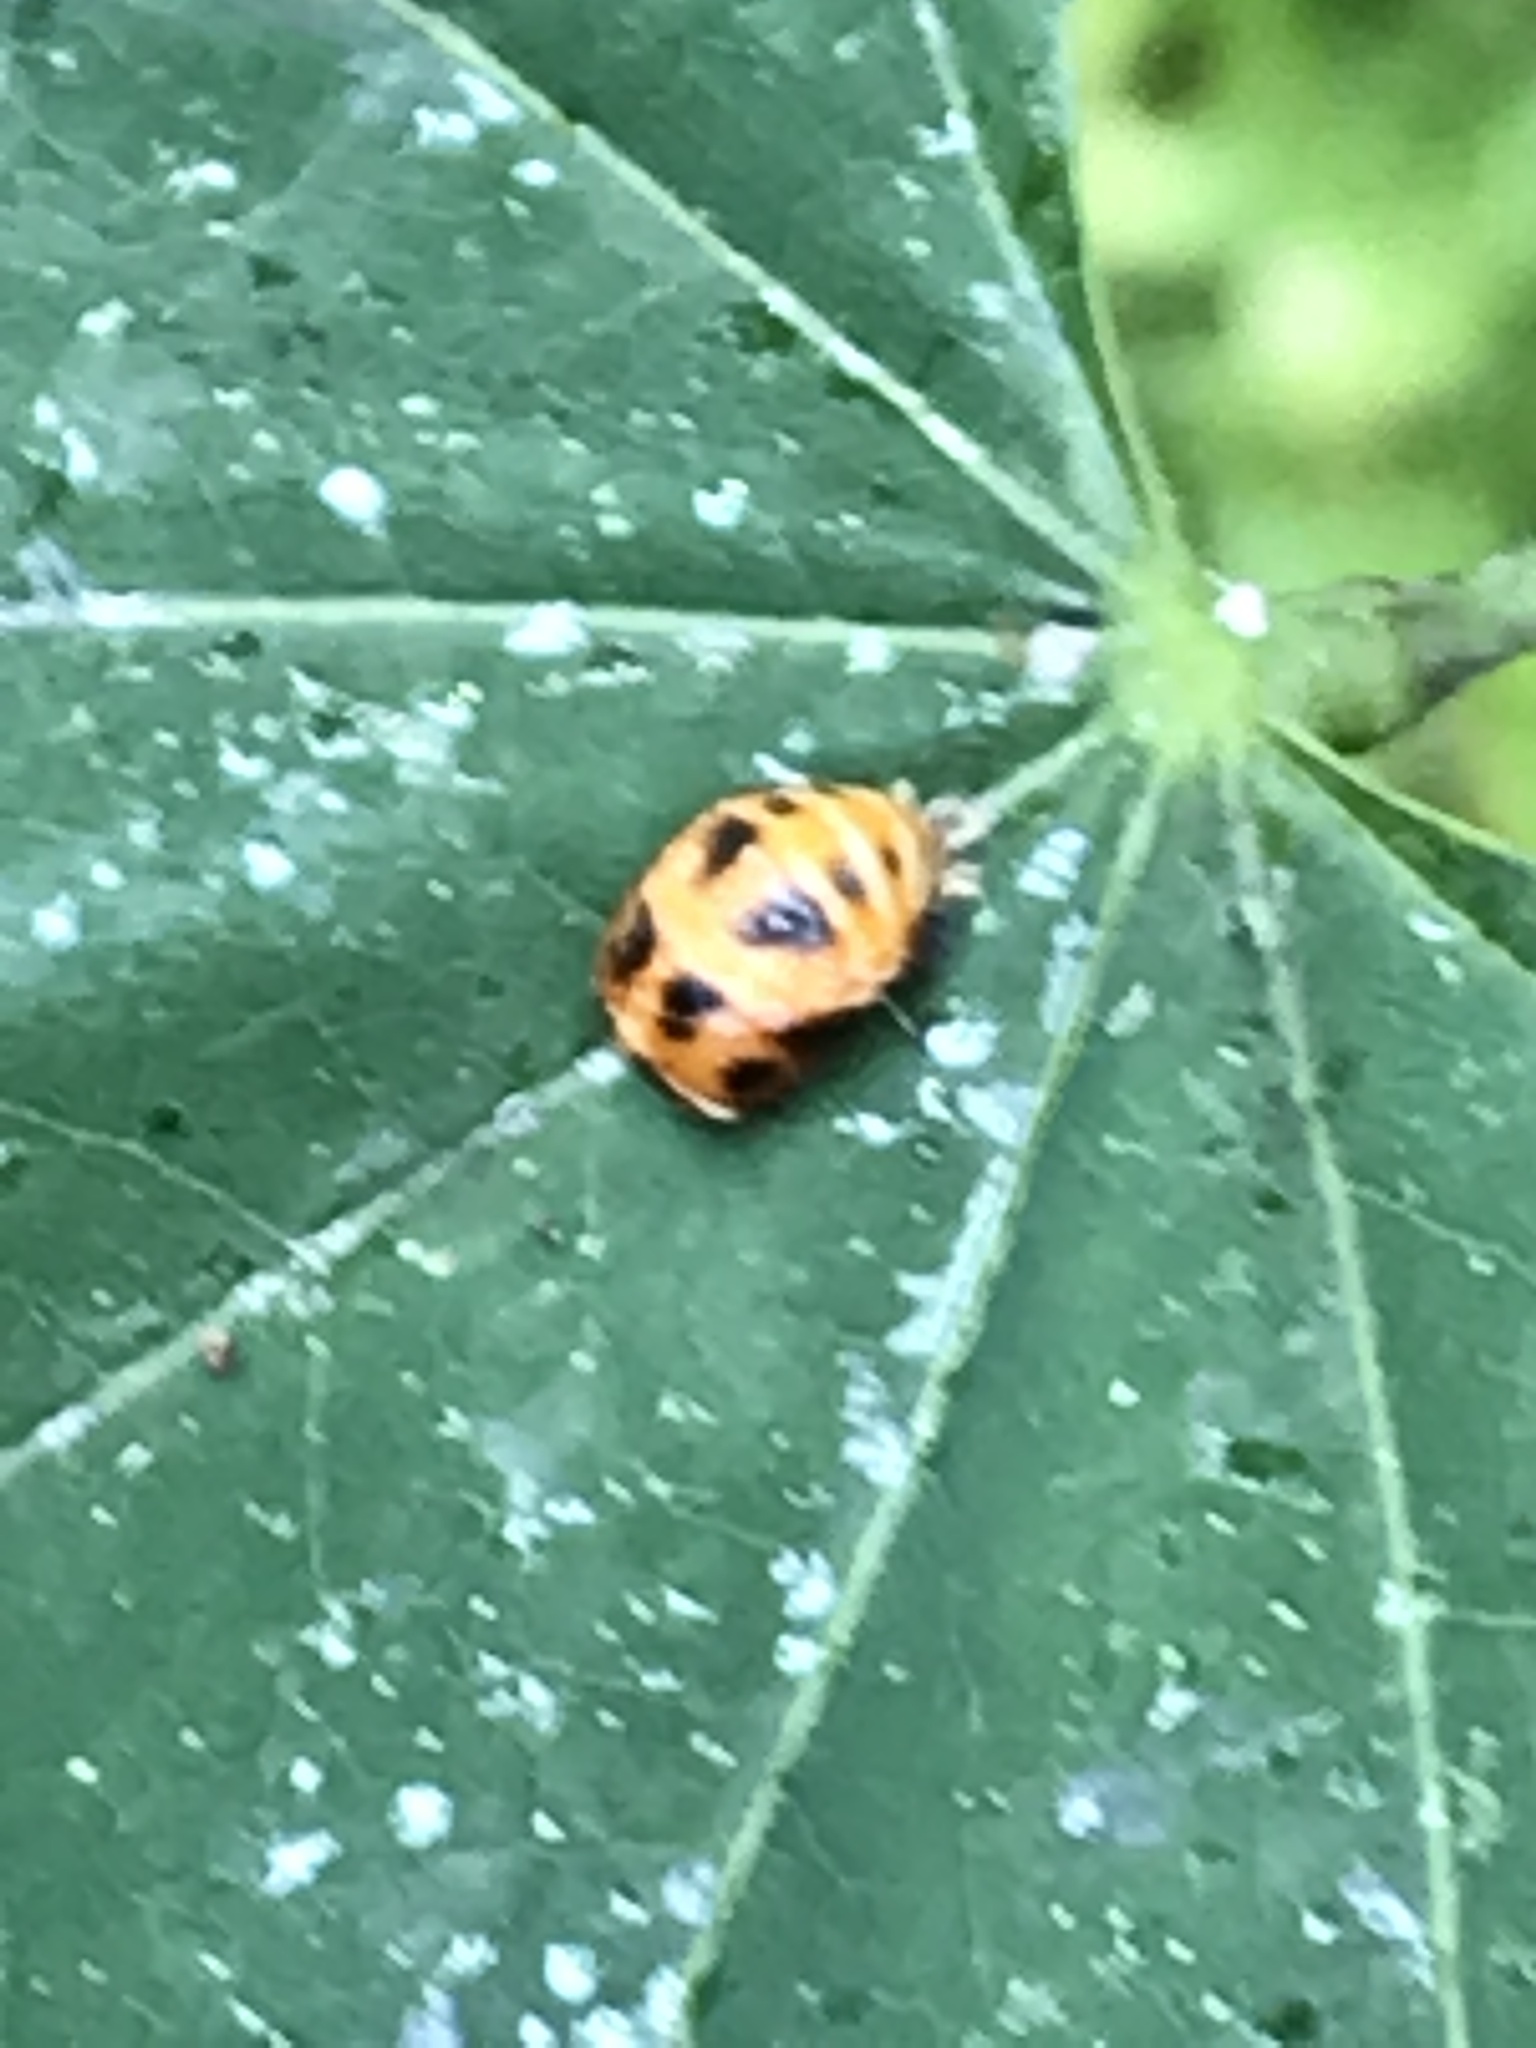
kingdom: Animalia
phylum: Arthropoda
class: Insecta
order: Coleoptera
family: Coccinellidae
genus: Harmonia
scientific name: Harmonia axyridis
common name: Harlequin ladybird
